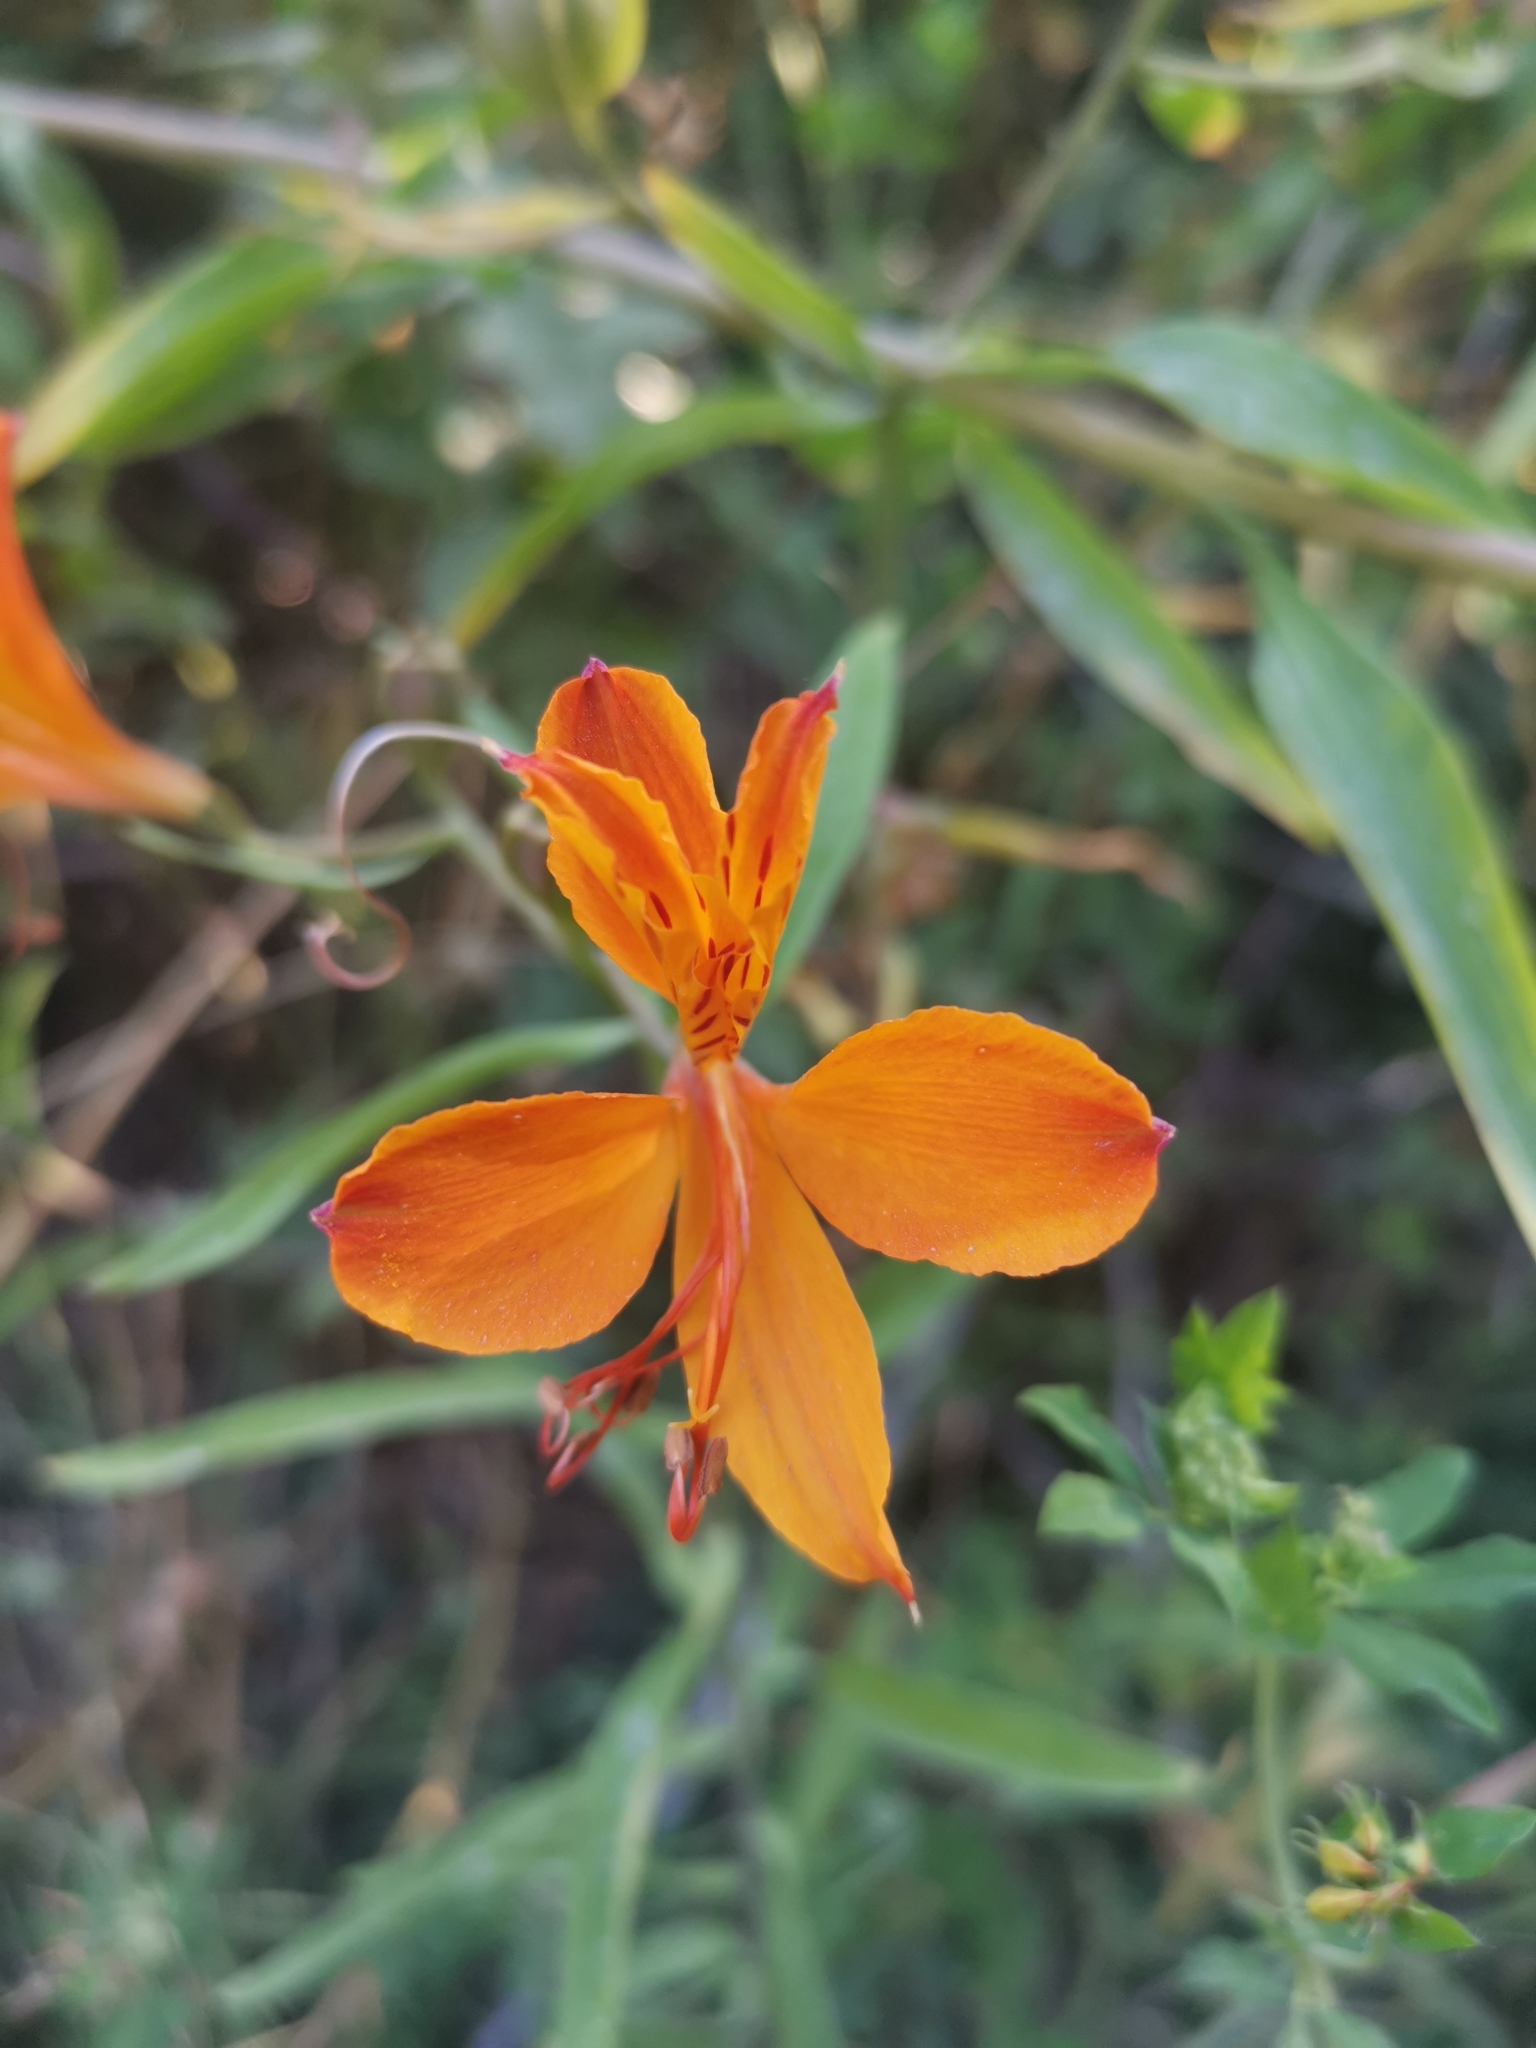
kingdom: Plantae
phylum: Tracheophyta
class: Liliopsida
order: Liliales
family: Alstroemeriaceae
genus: Alstroemeria
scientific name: Alstroemeria aurea
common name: Peruvian lily
